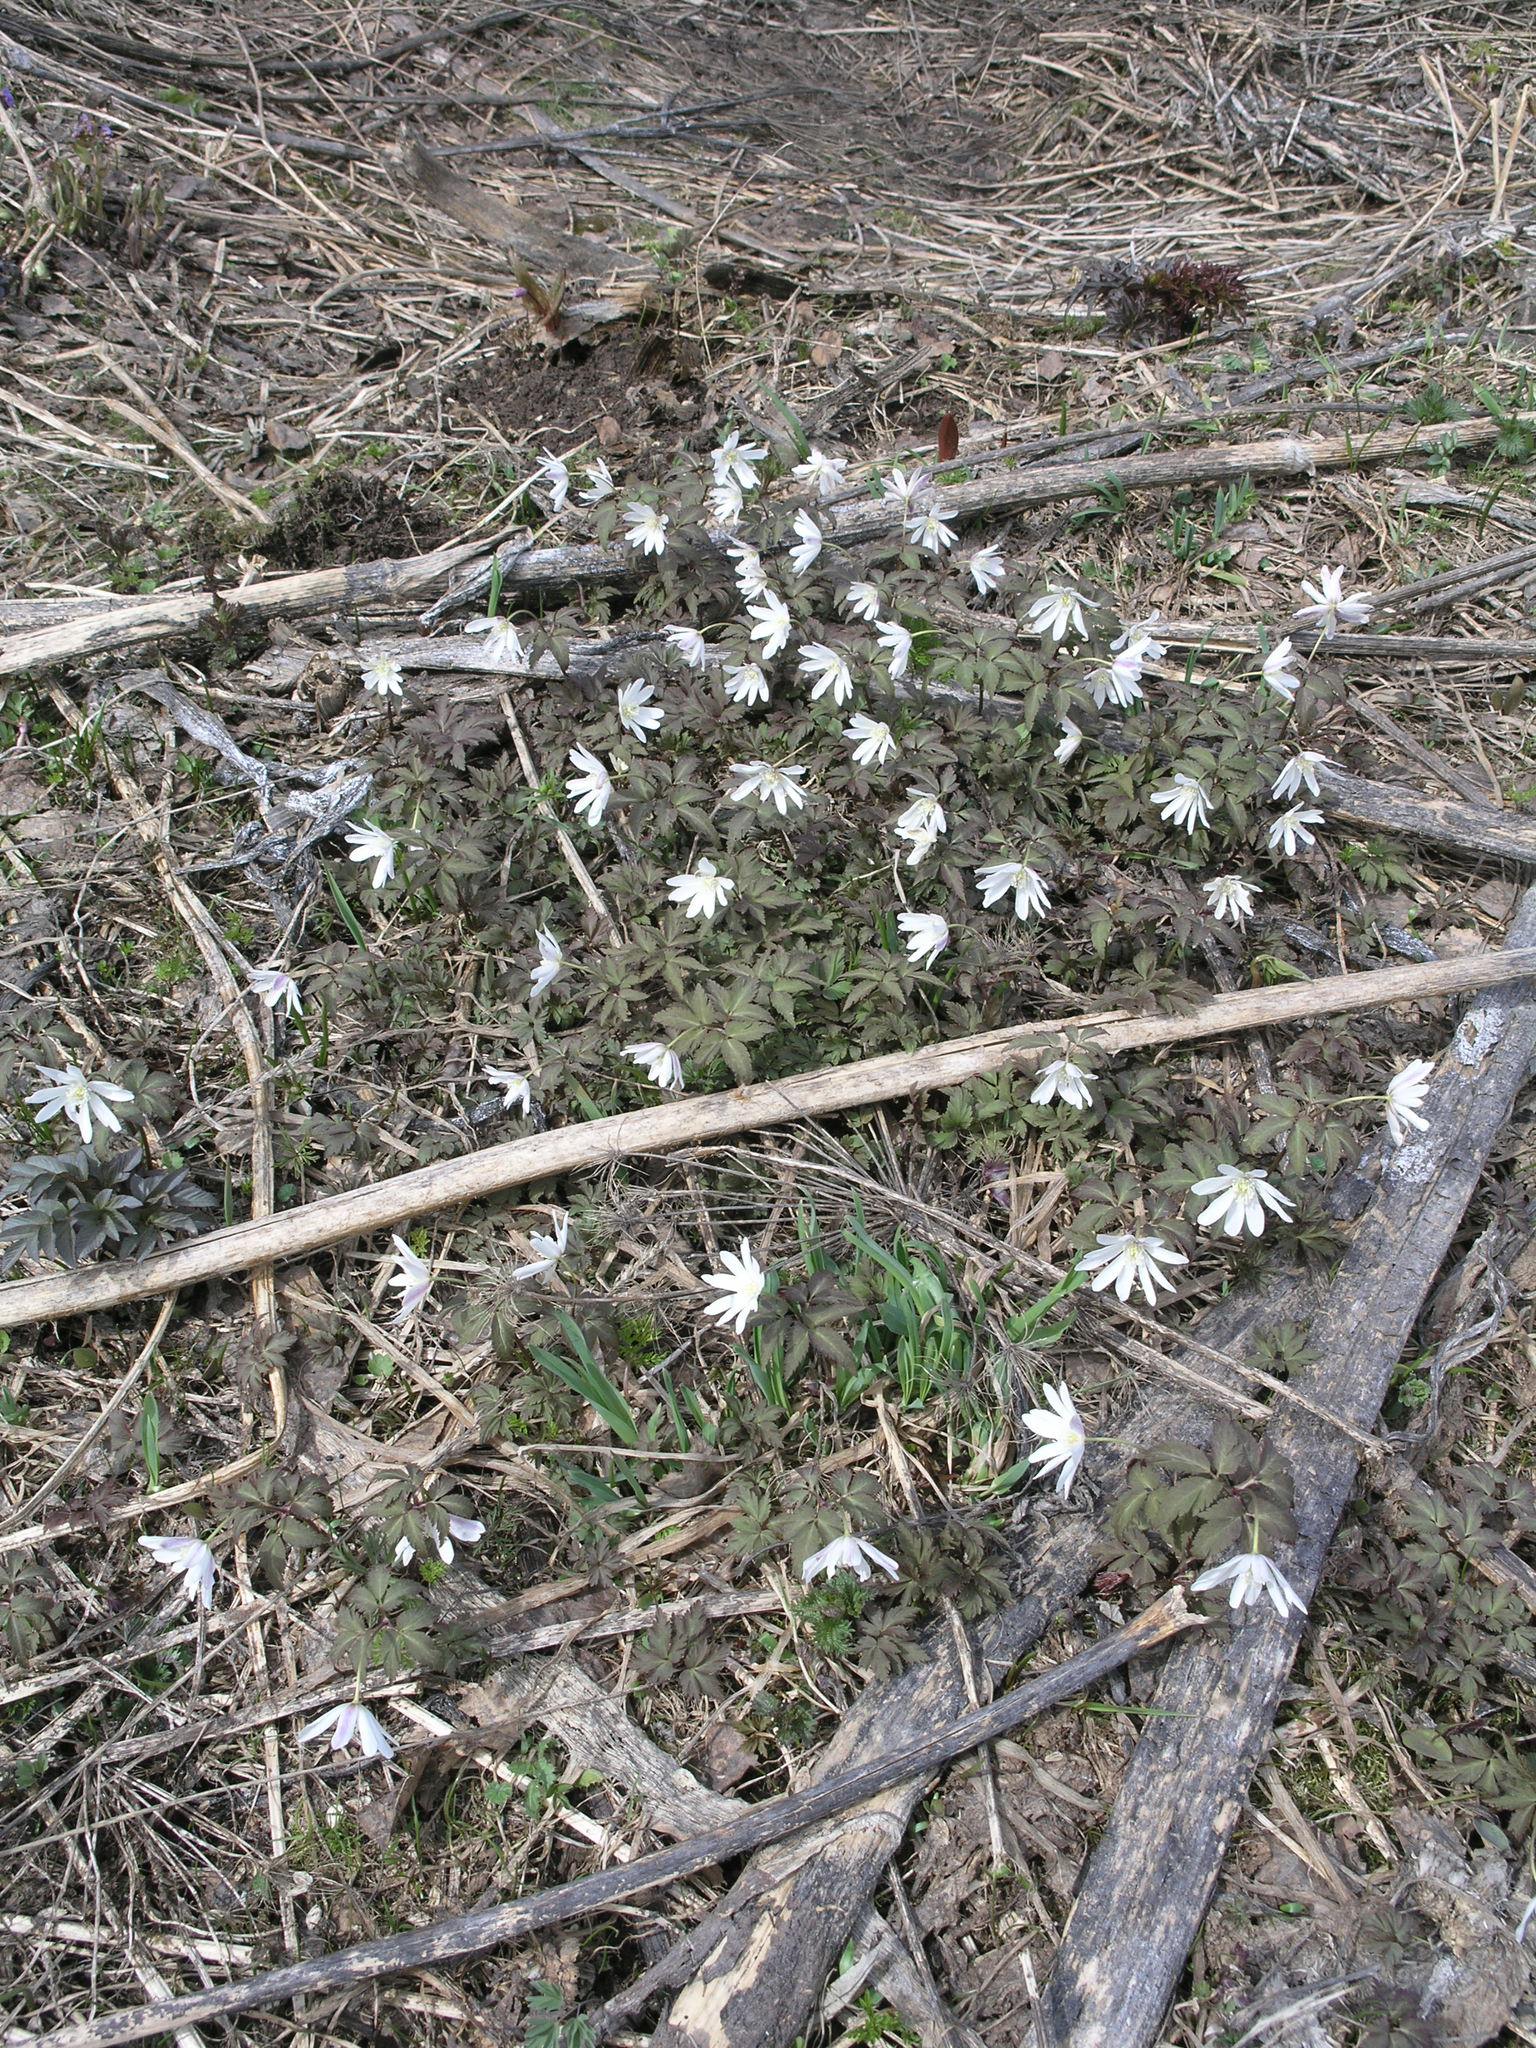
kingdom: Plantae
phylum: Tracheophyta
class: Magnoliopsida
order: Ranunculales
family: Ranunculaceae
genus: Anemone
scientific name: Anemone altaica
